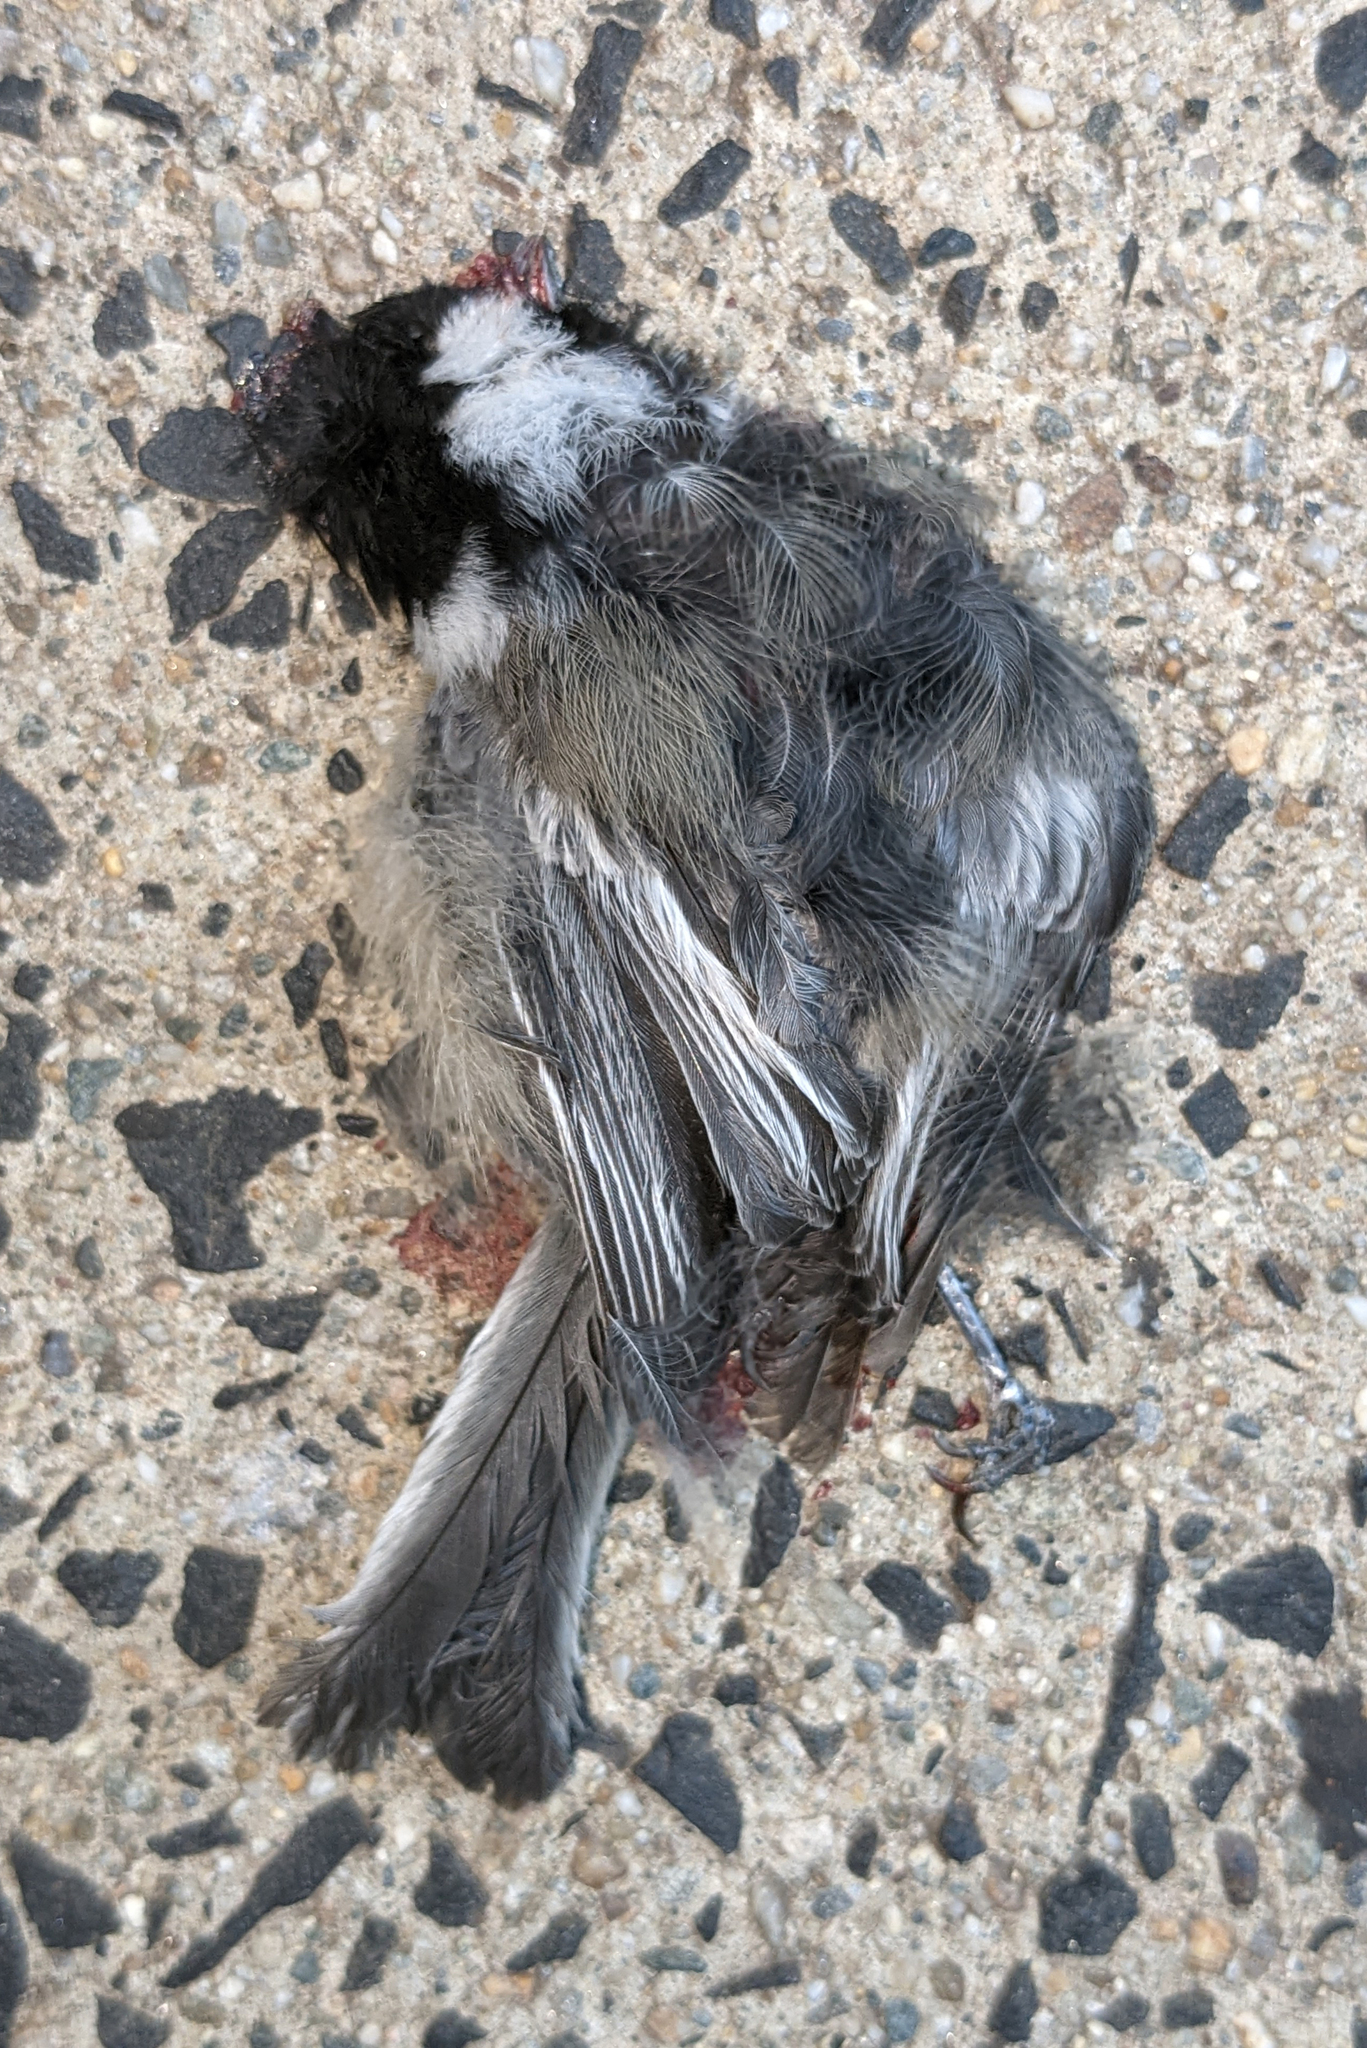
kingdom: Animalia
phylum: Chordata
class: Aves
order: Passeriformes
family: Paridae
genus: Poecile
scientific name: Poecile atricapillus
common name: Black-capped chickadee
